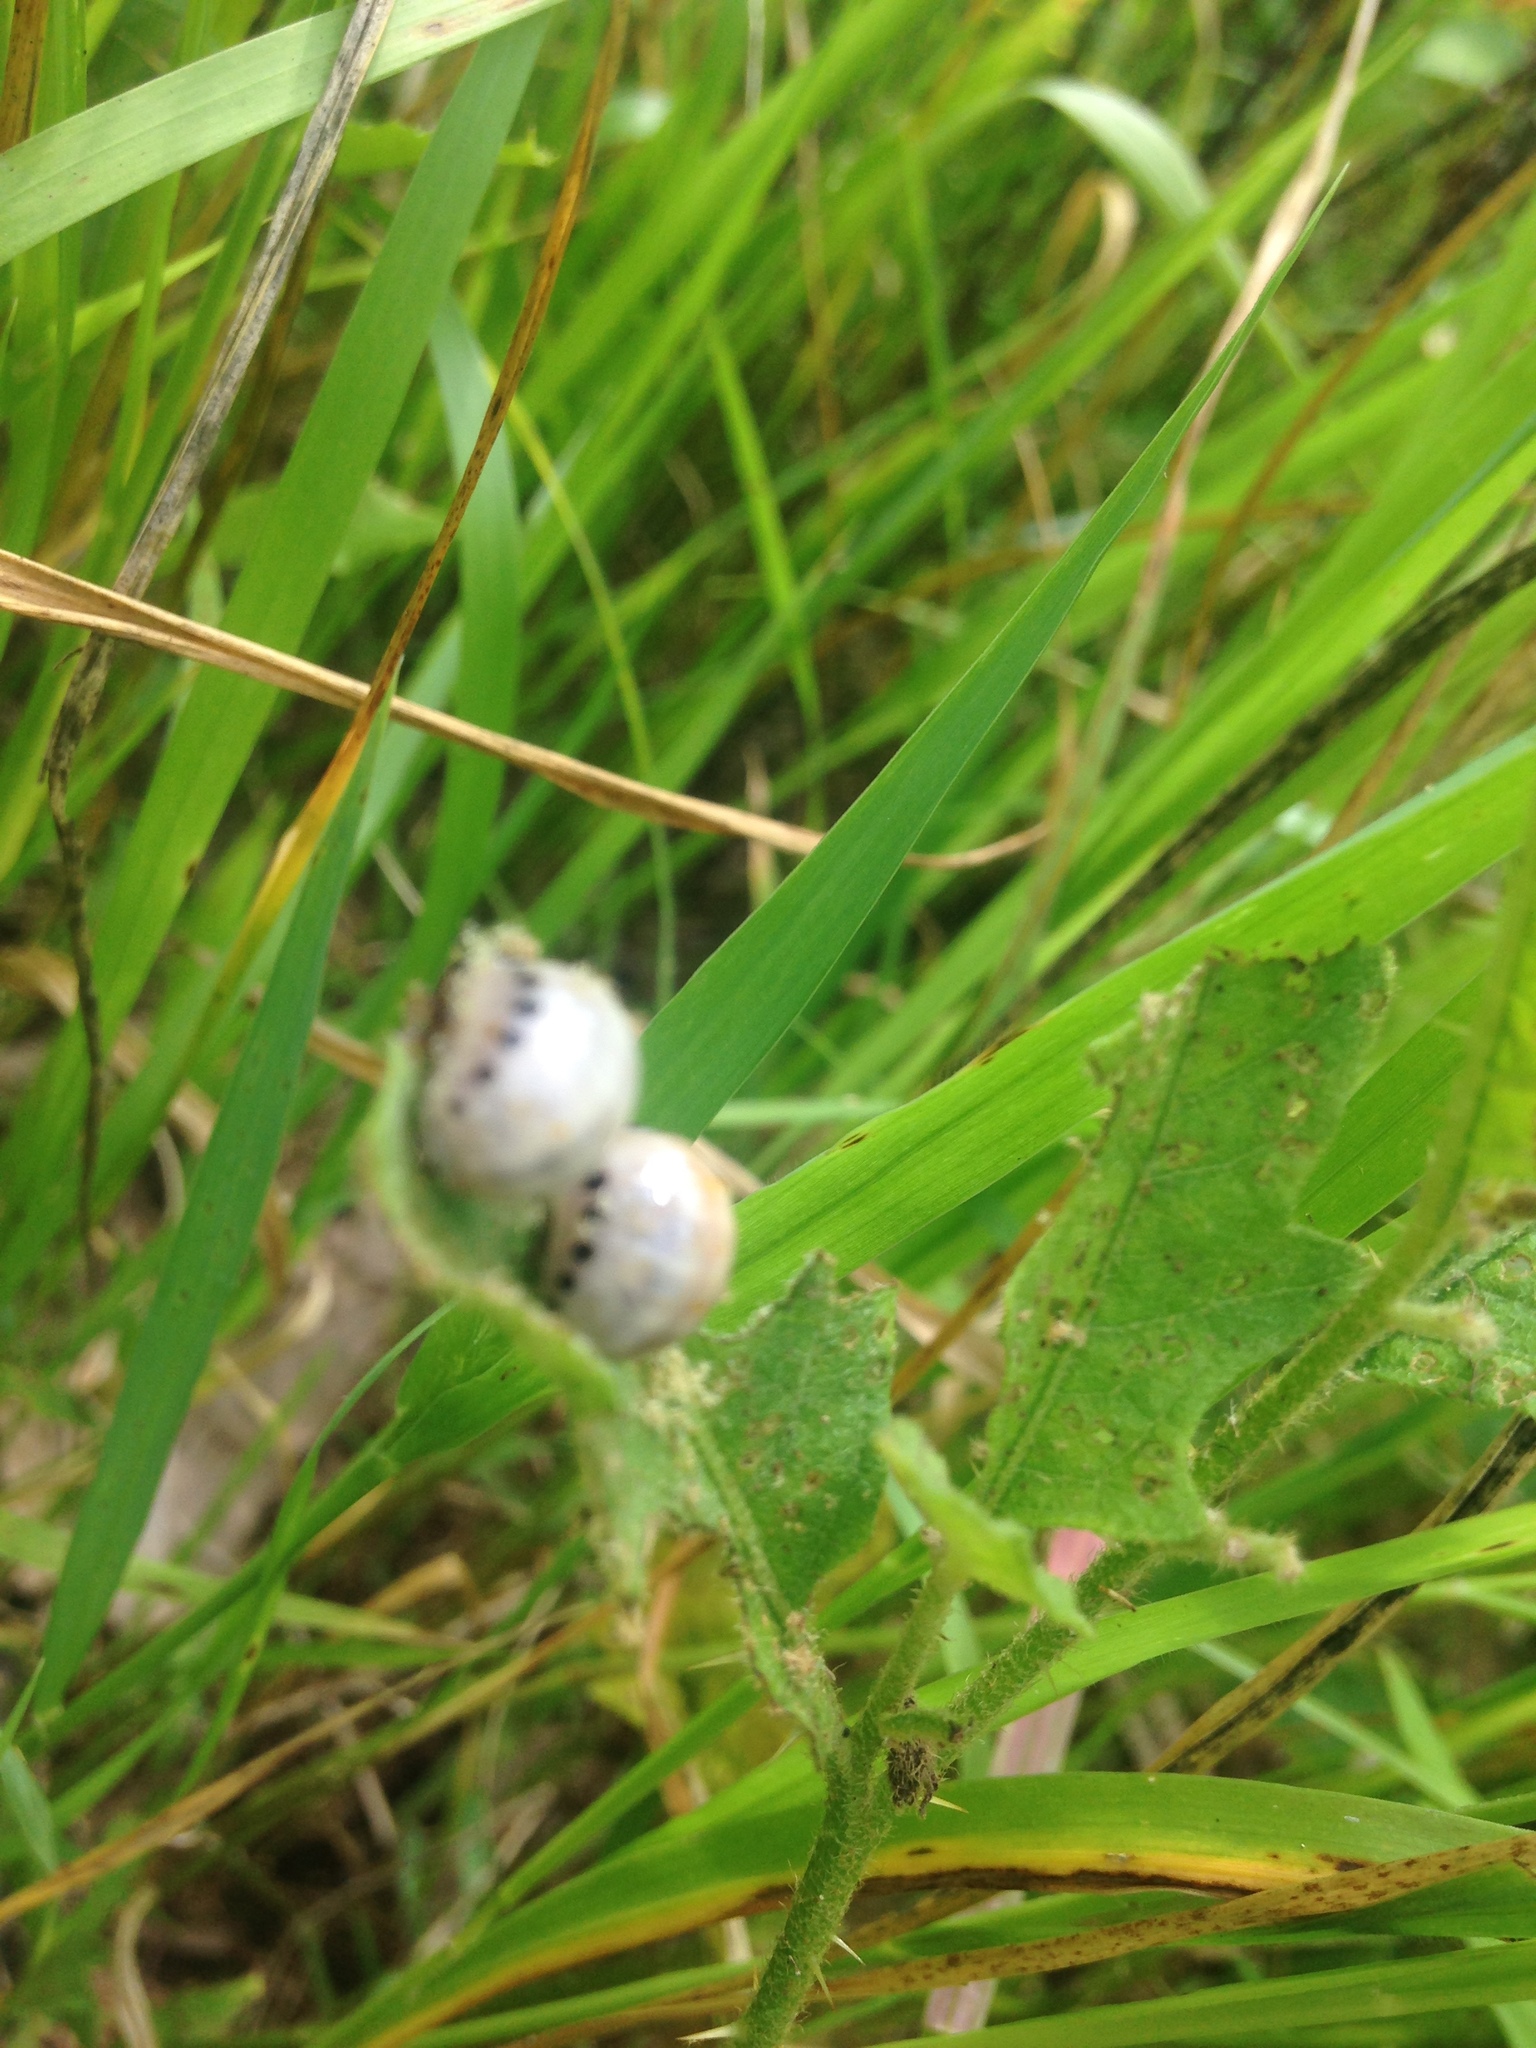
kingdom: Animalia
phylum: Arthropoda
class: Insecta
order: Coleoptera
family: Chrysomelidae
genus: Leptinotarsa
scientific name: Leptinotarsa juncta
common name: False potato beetle
